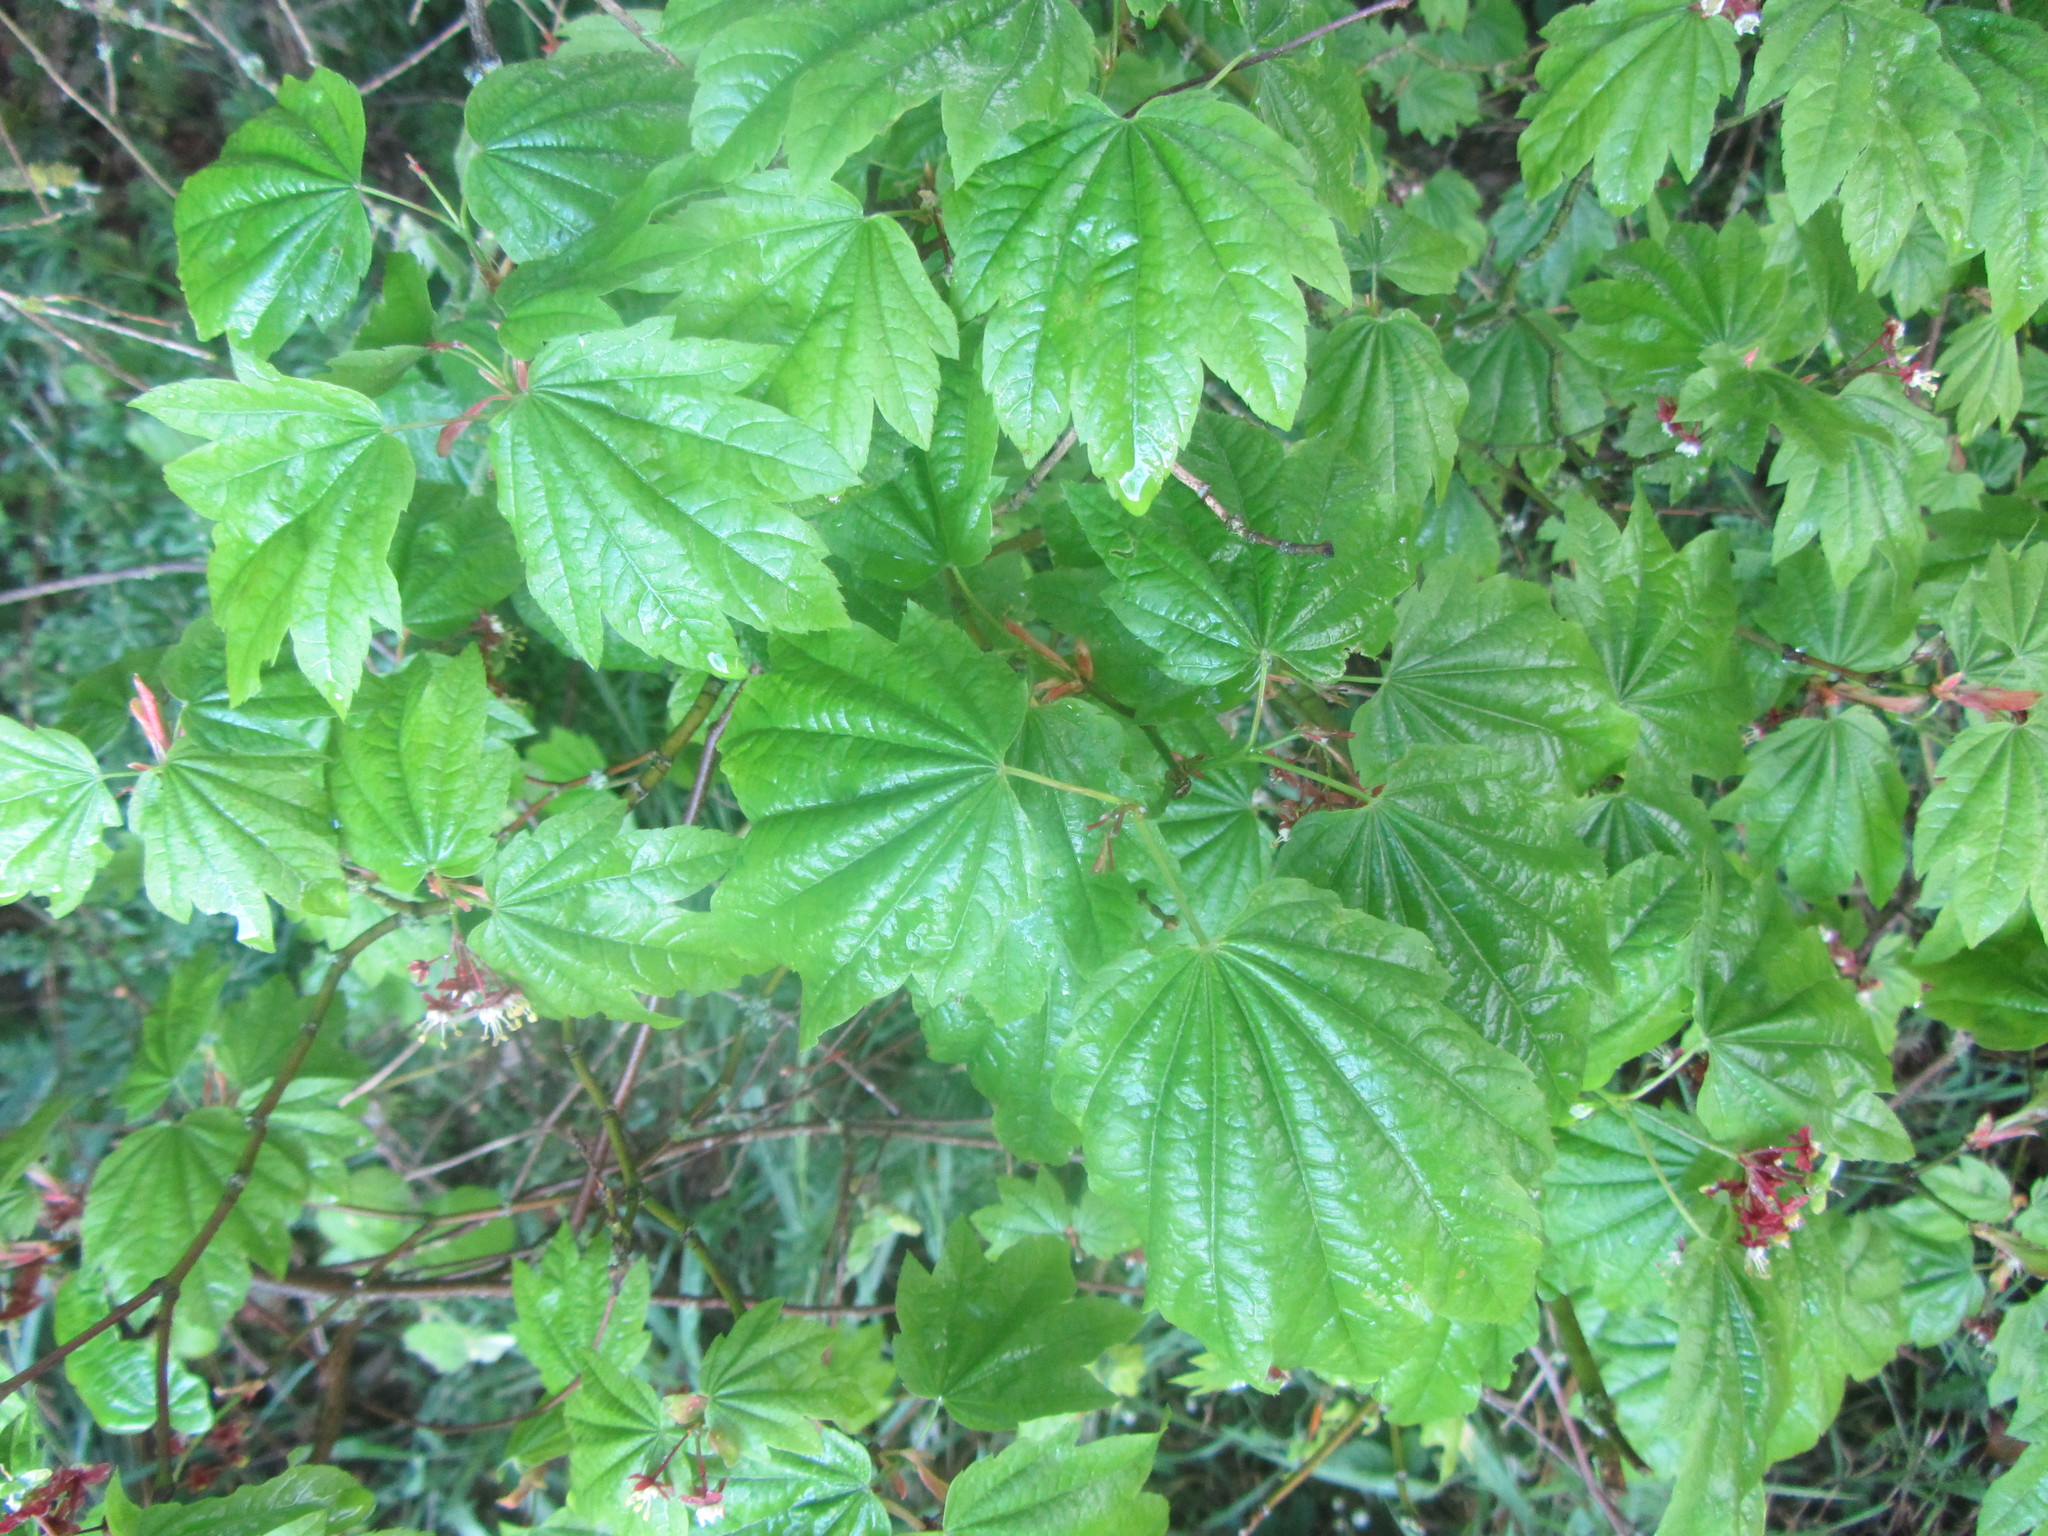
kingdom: Plantae
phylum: Tracheophyta
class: Magnoliopsida
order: Sapindales
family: Sapindaceae
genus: Acer
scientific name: Acer circinatum
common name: Vine maple
